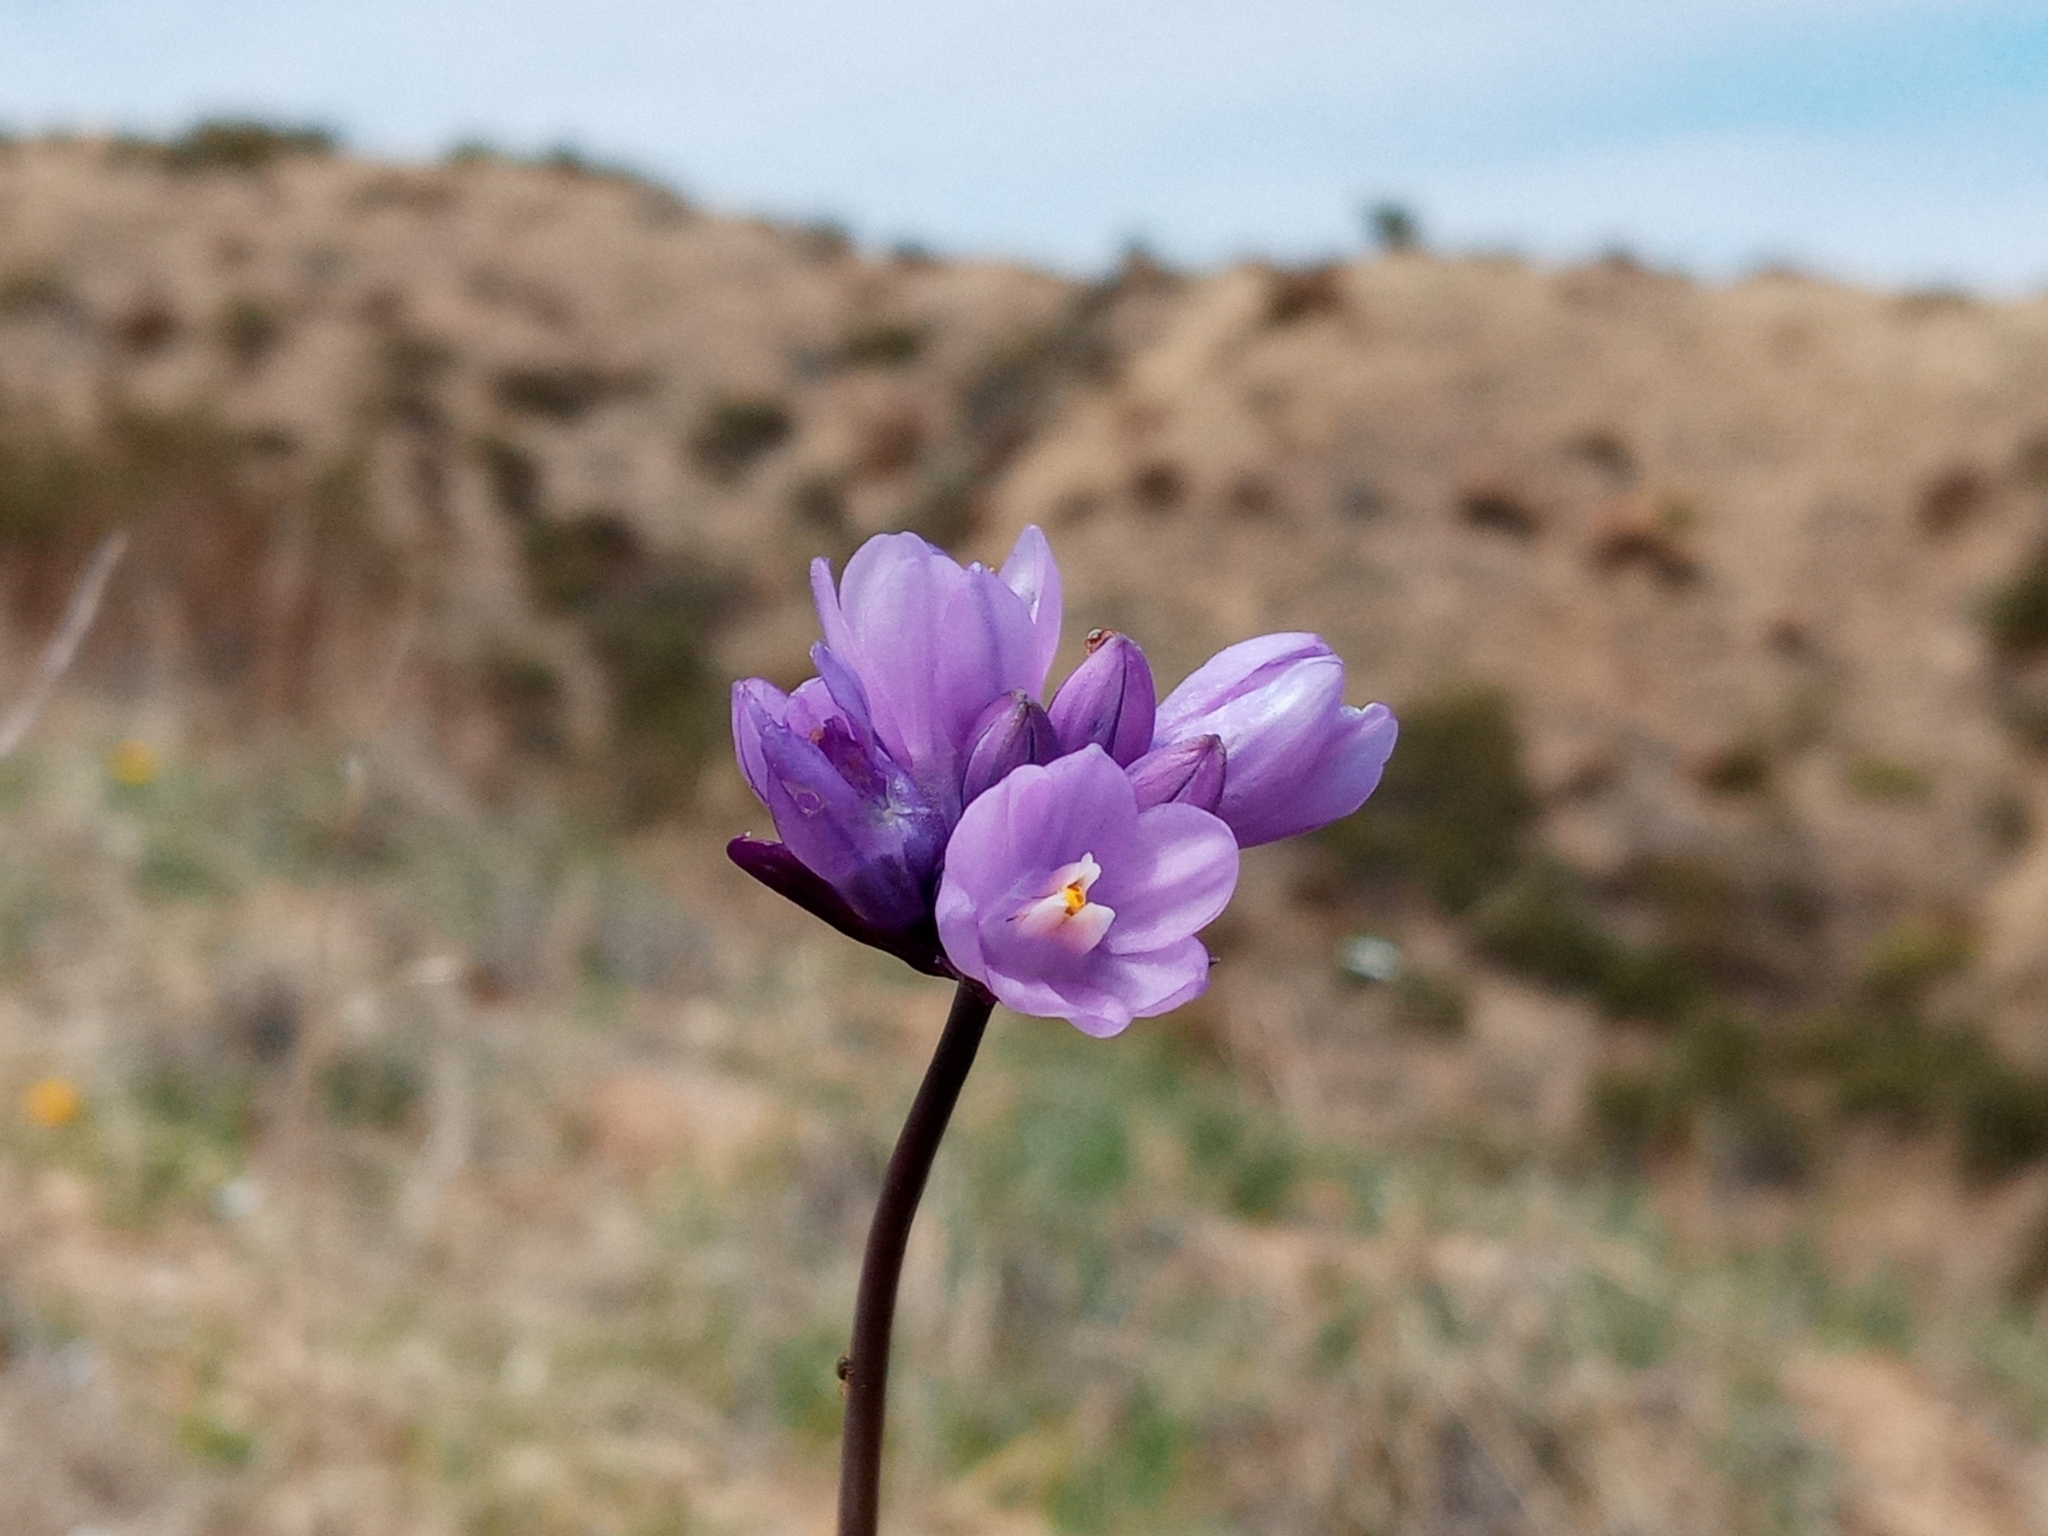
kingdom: Plantae
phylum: Tracheophyta
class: Liliopsida
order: Asparagales
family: Asparagaceae
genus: Dipterostemon
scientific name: Dipterostemon capitatus
